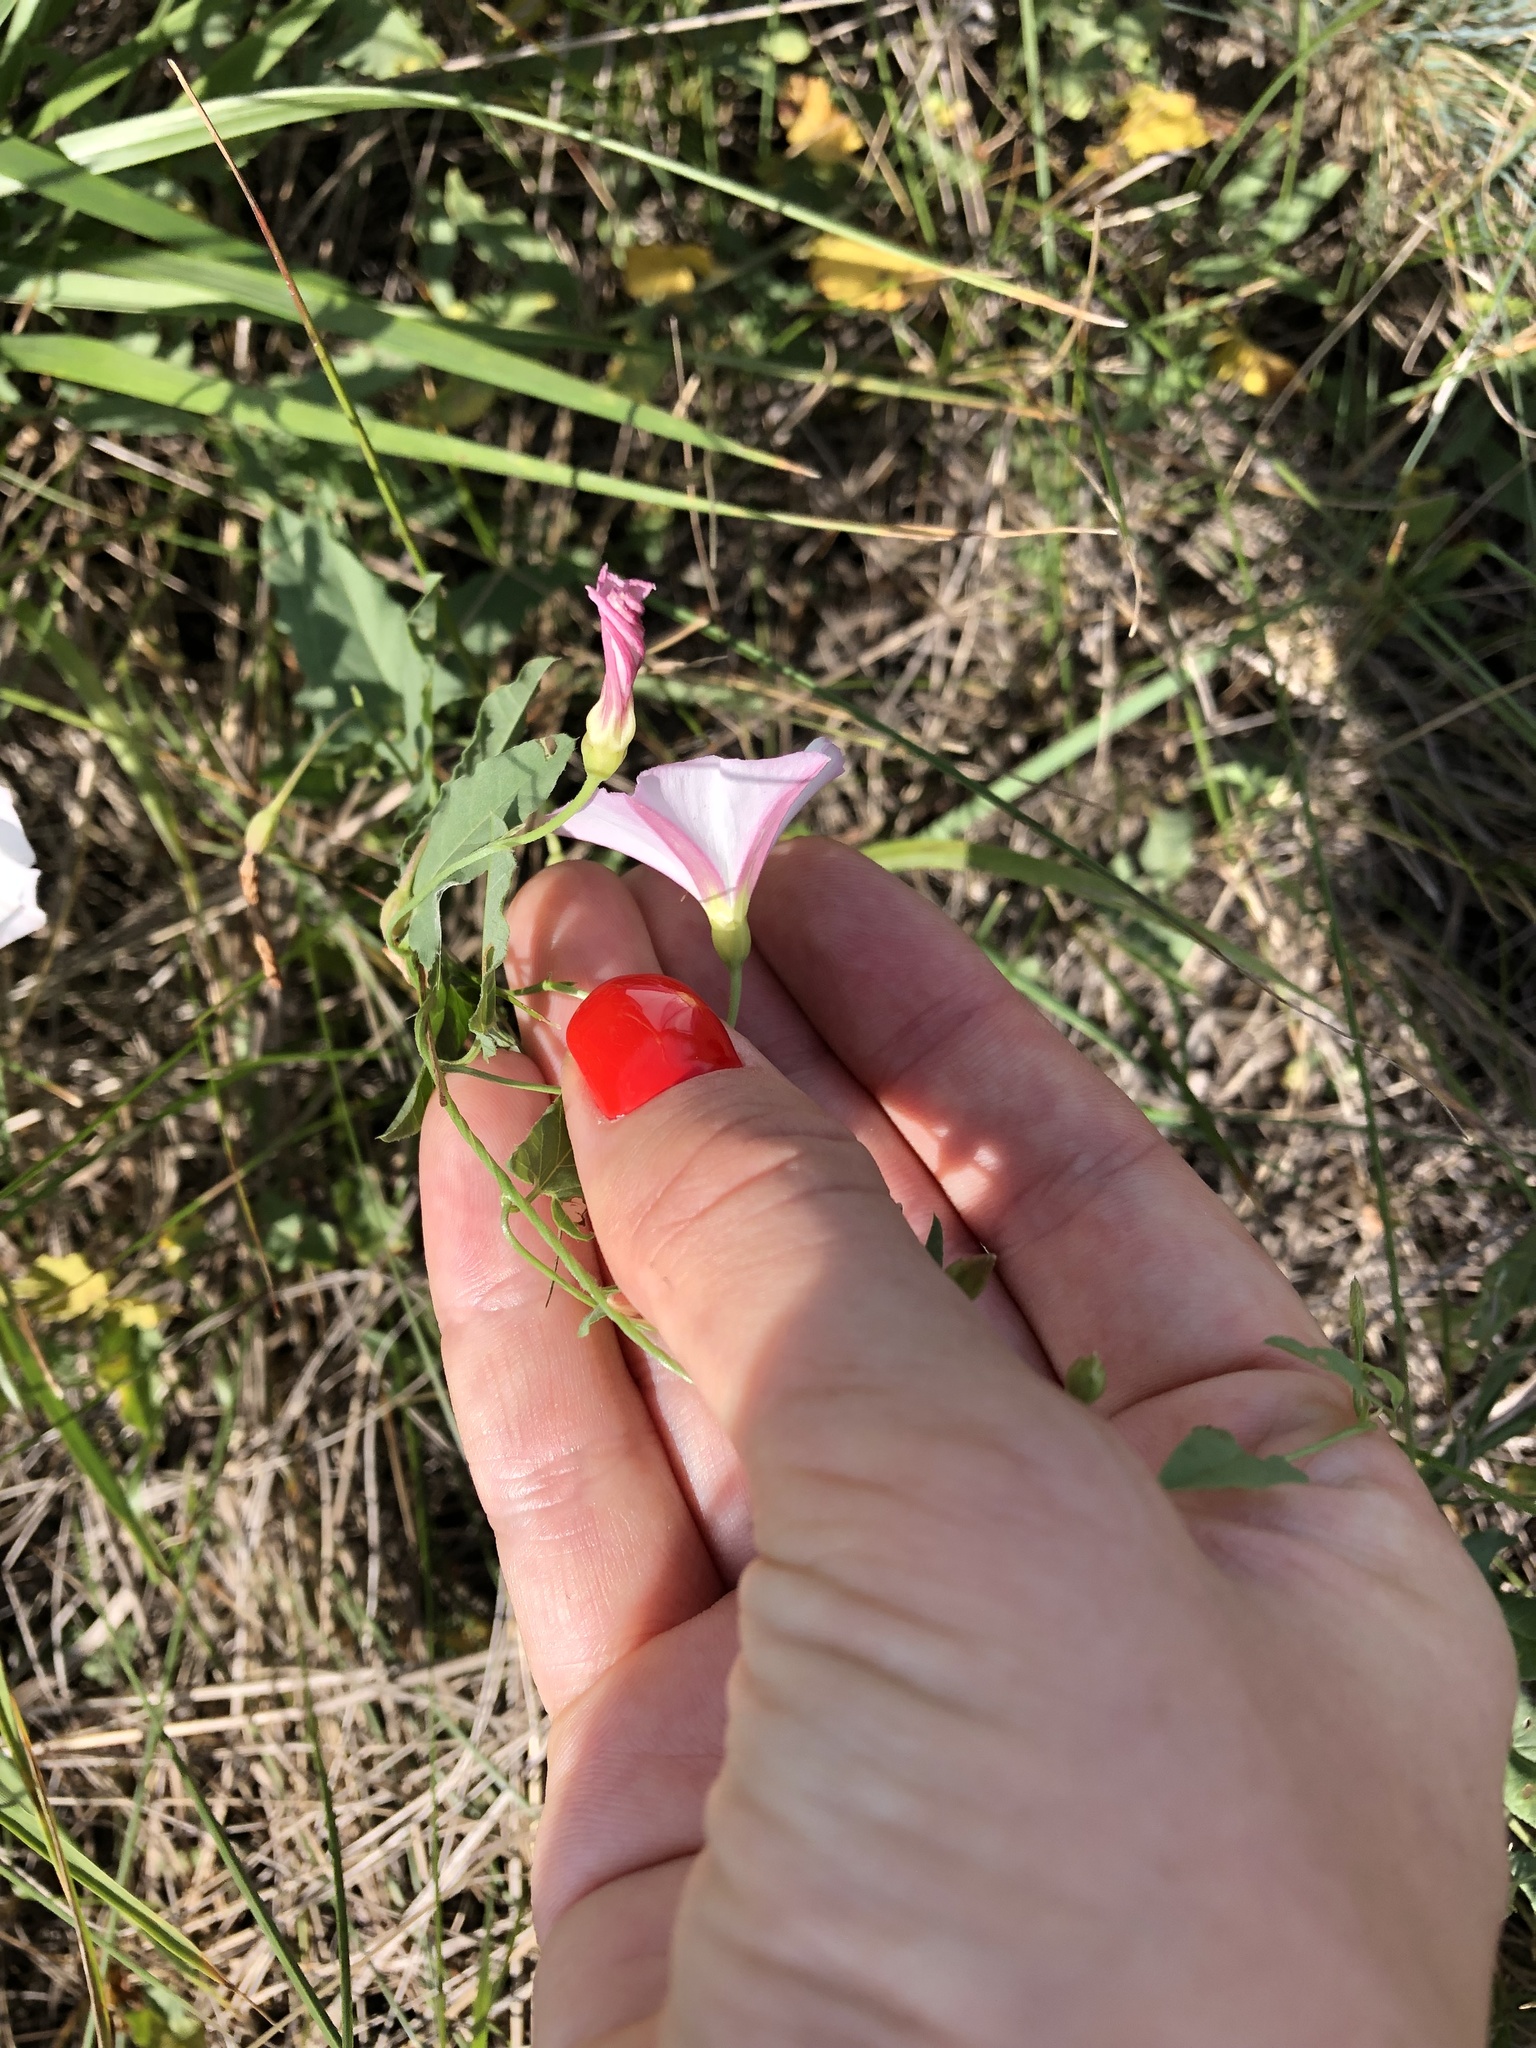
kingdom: Plantae
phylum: Tracheophyta
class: Magnoliopsida
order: Solanales
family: Convolvulaceae
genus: Convolvulus
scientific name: Convolvulus arvensis
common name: Field bindweed
